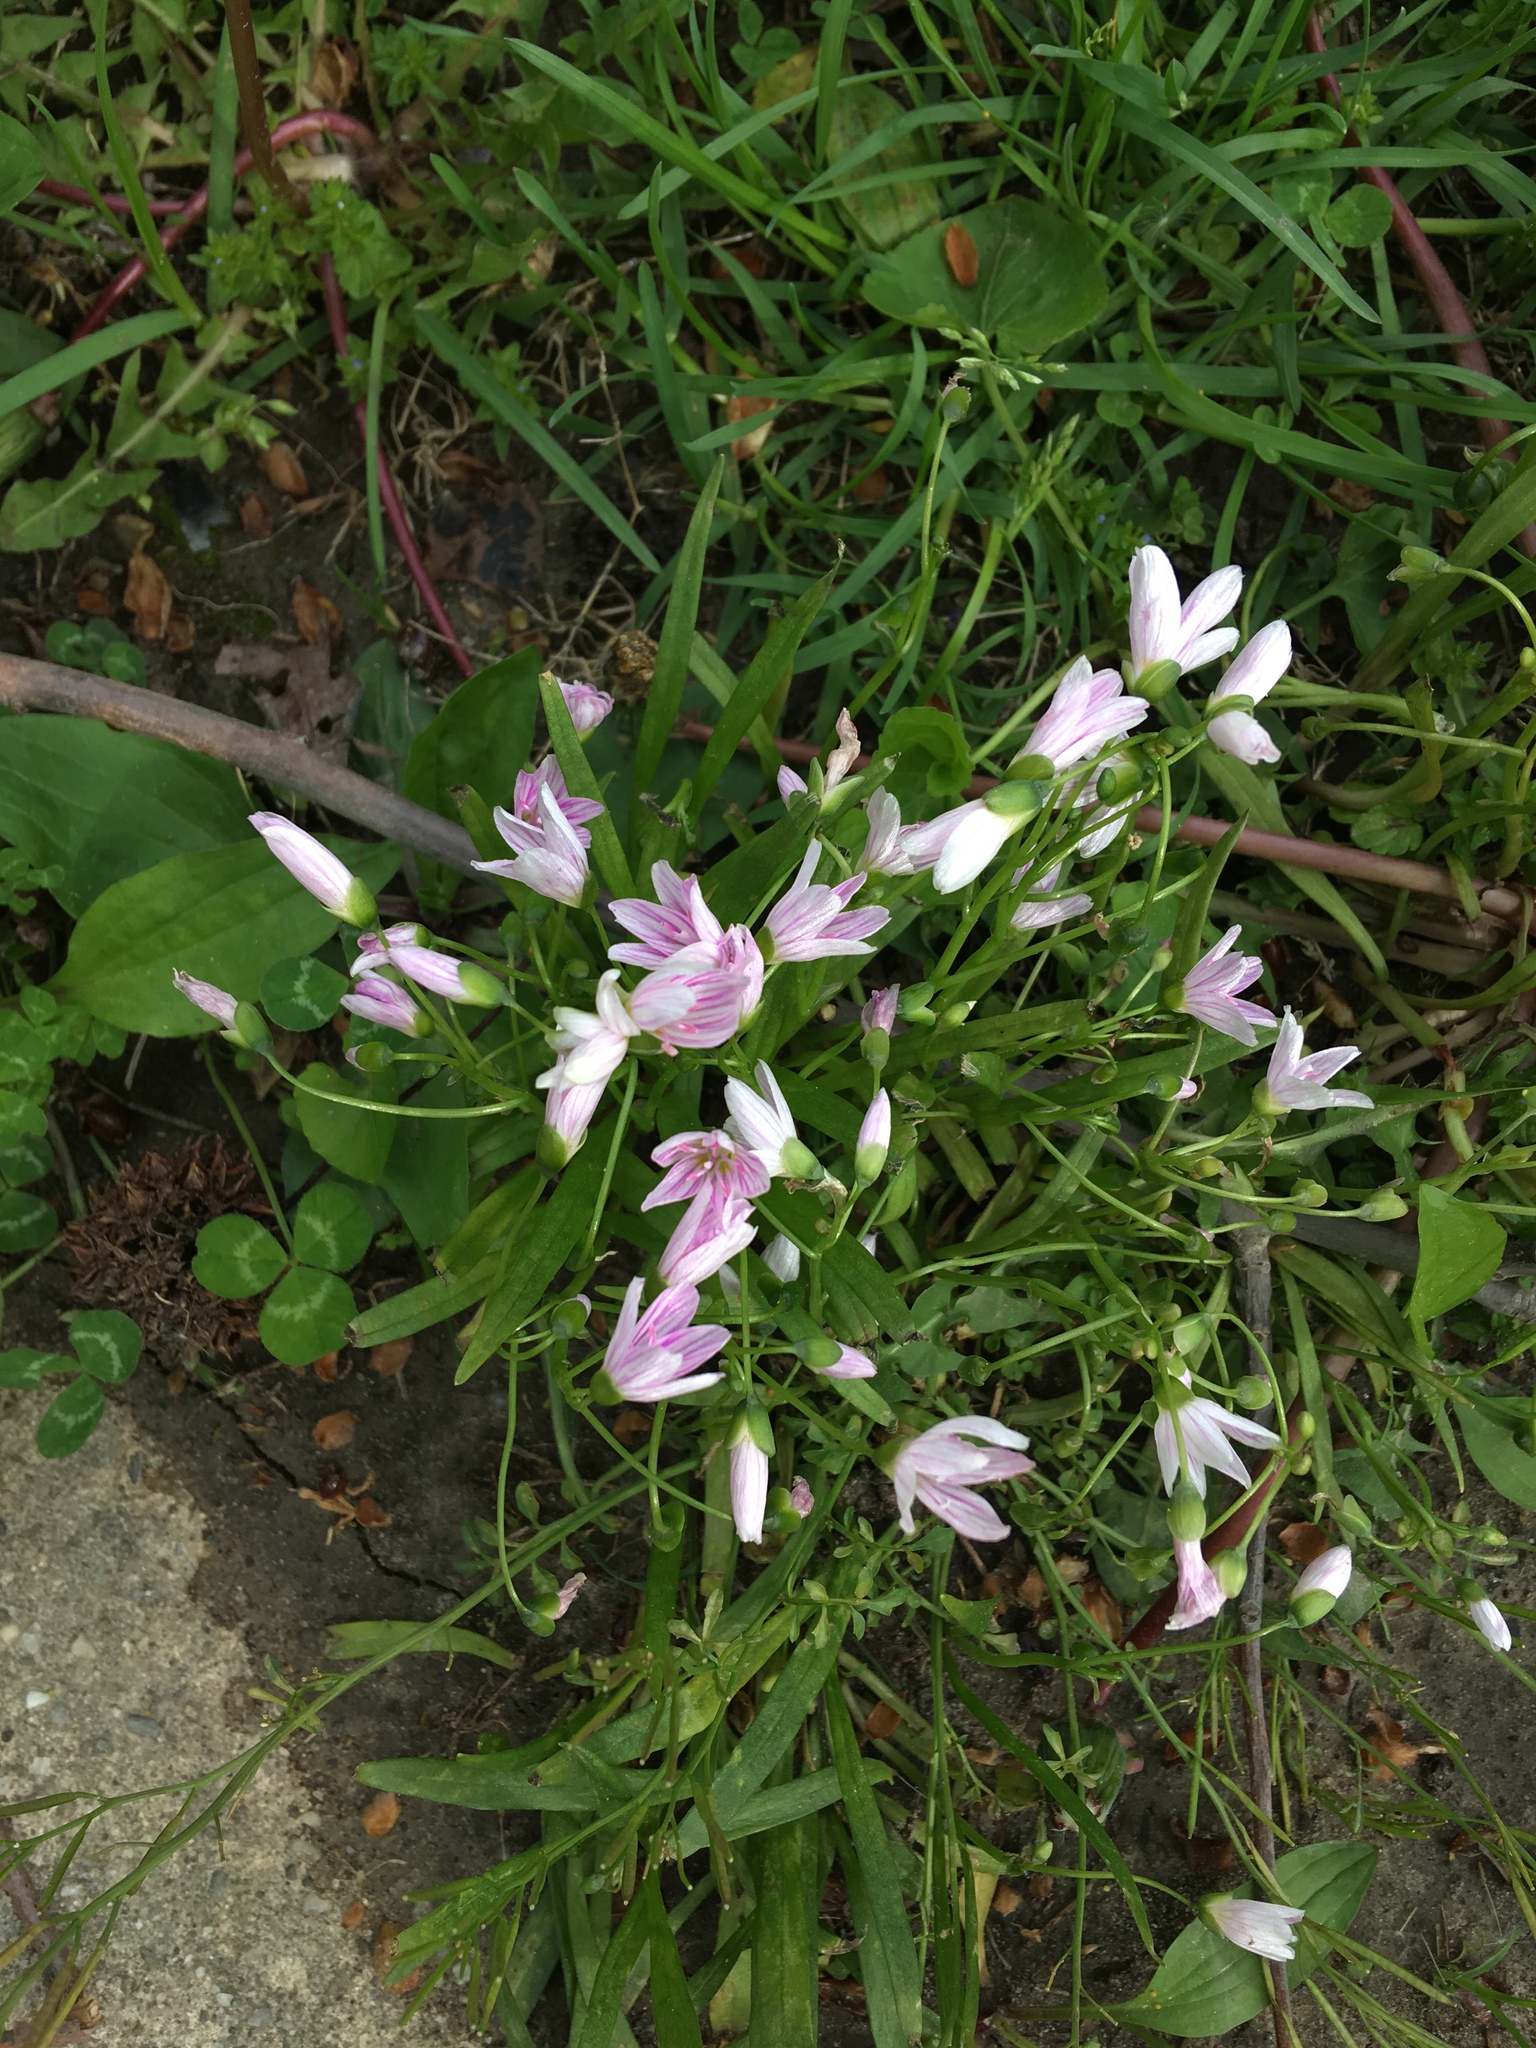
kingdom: Plantae
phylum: Tracheophyta
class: Magnoliopsida
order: Caryophyllales
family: Montiaceae
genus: Claytonia
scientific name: Claytonia virginica
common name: Virginia springbeauty
